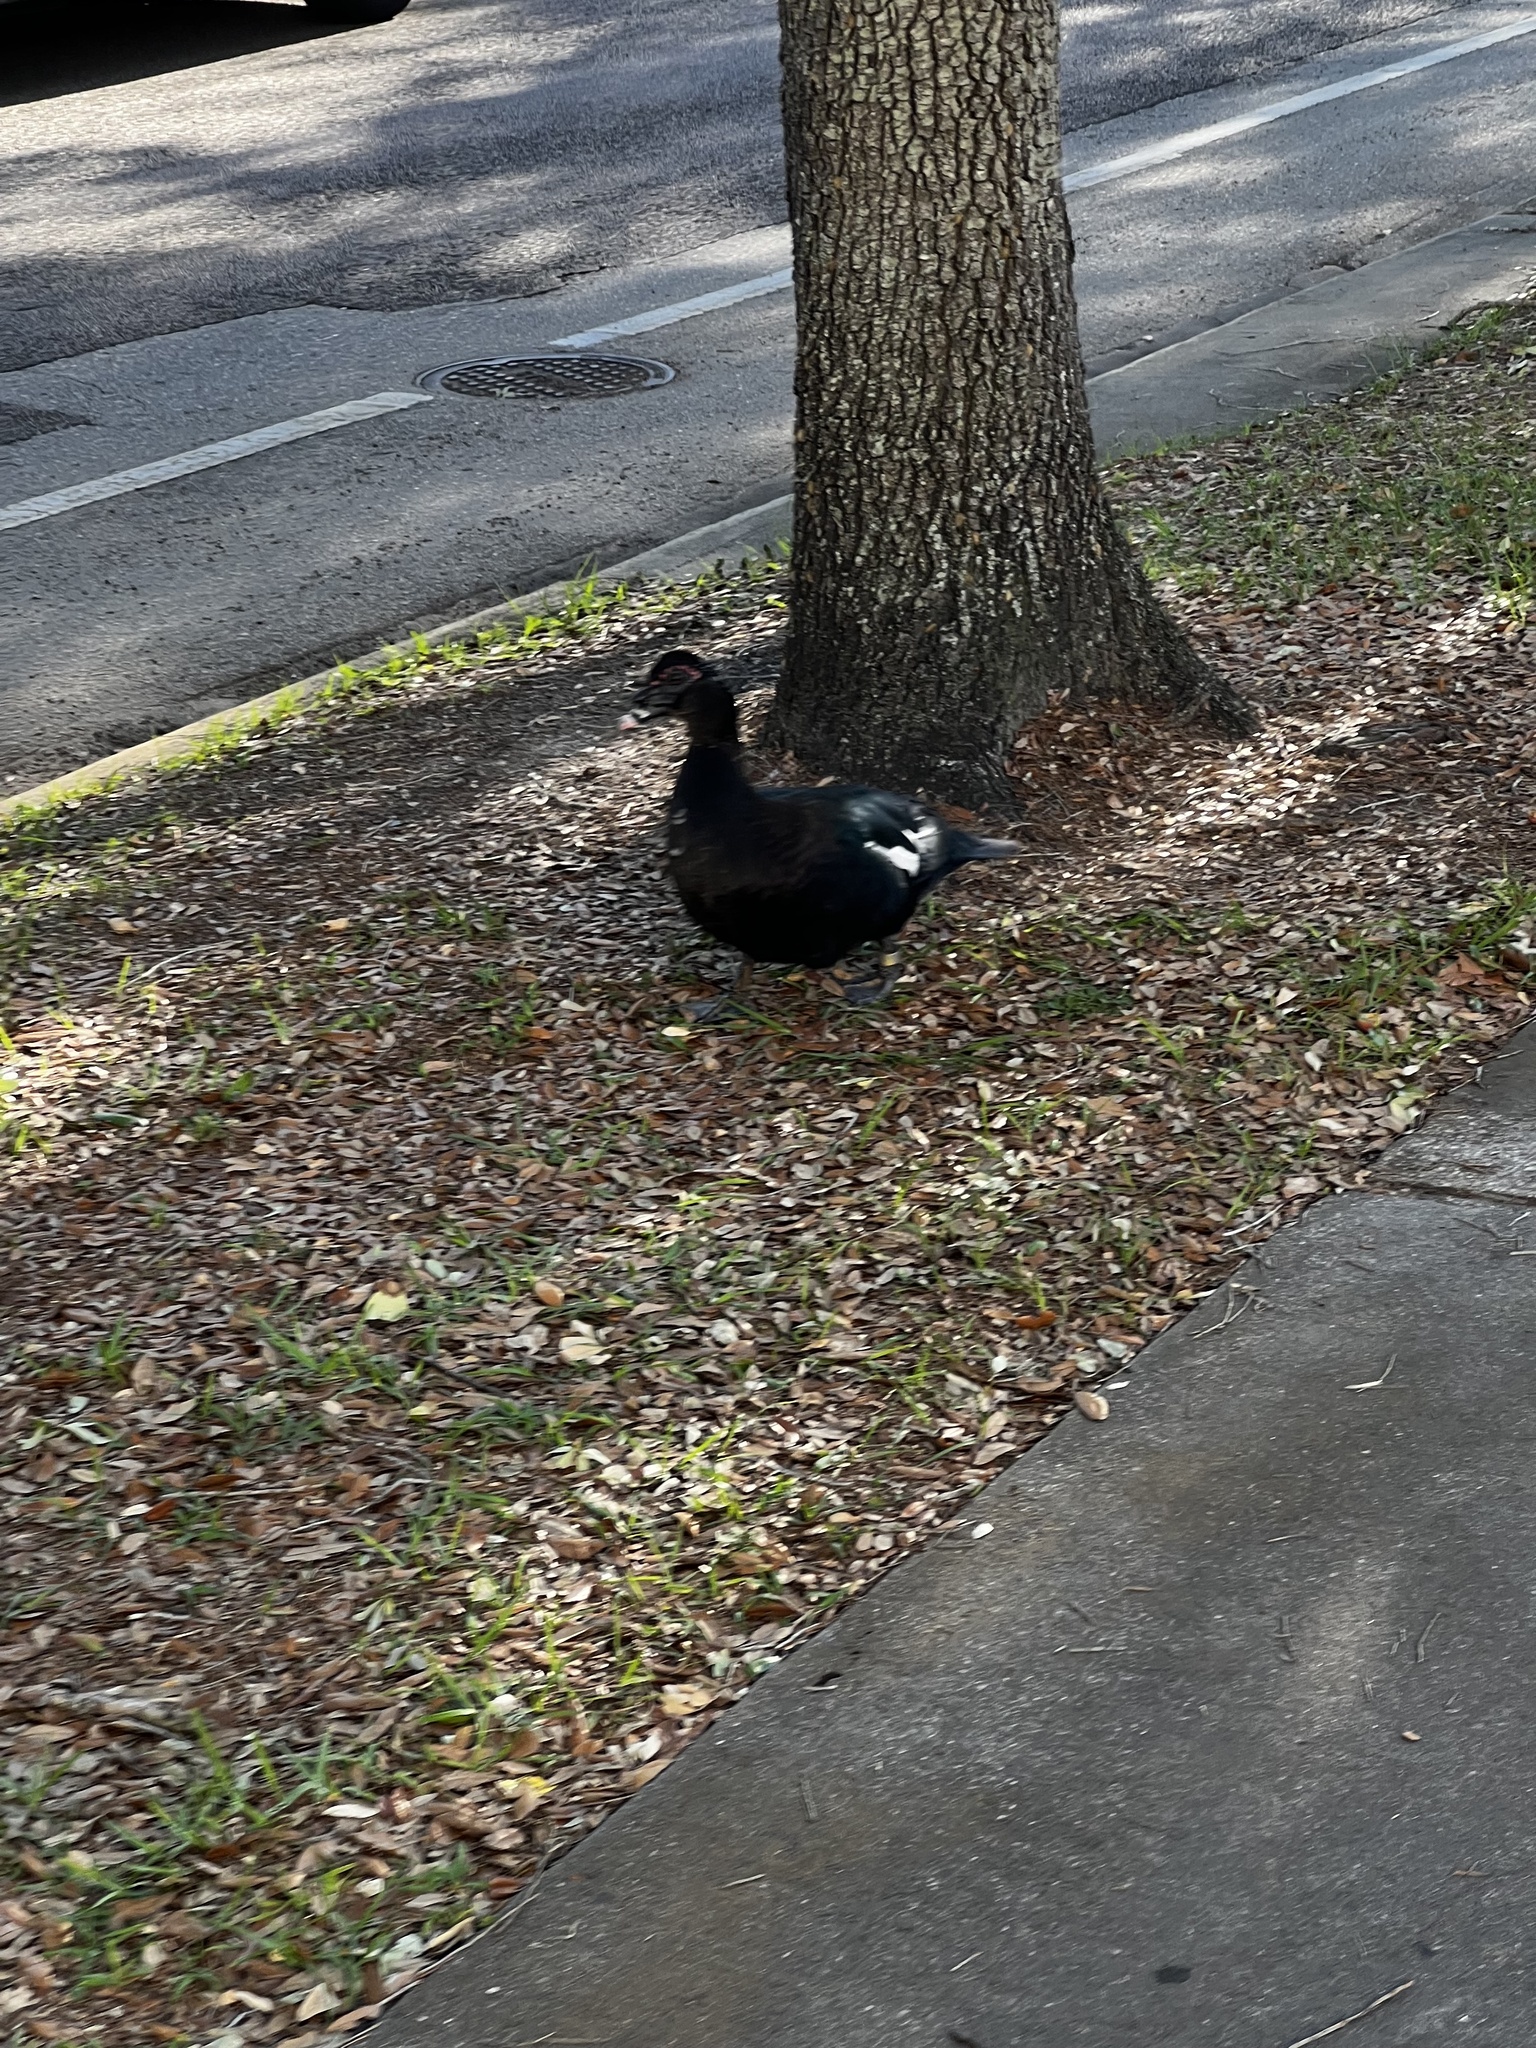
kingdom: Animalia
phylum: Chordata
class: Aves
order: Anseriformes
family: Anatidae
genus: Cairina
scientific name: Cairina moschata
